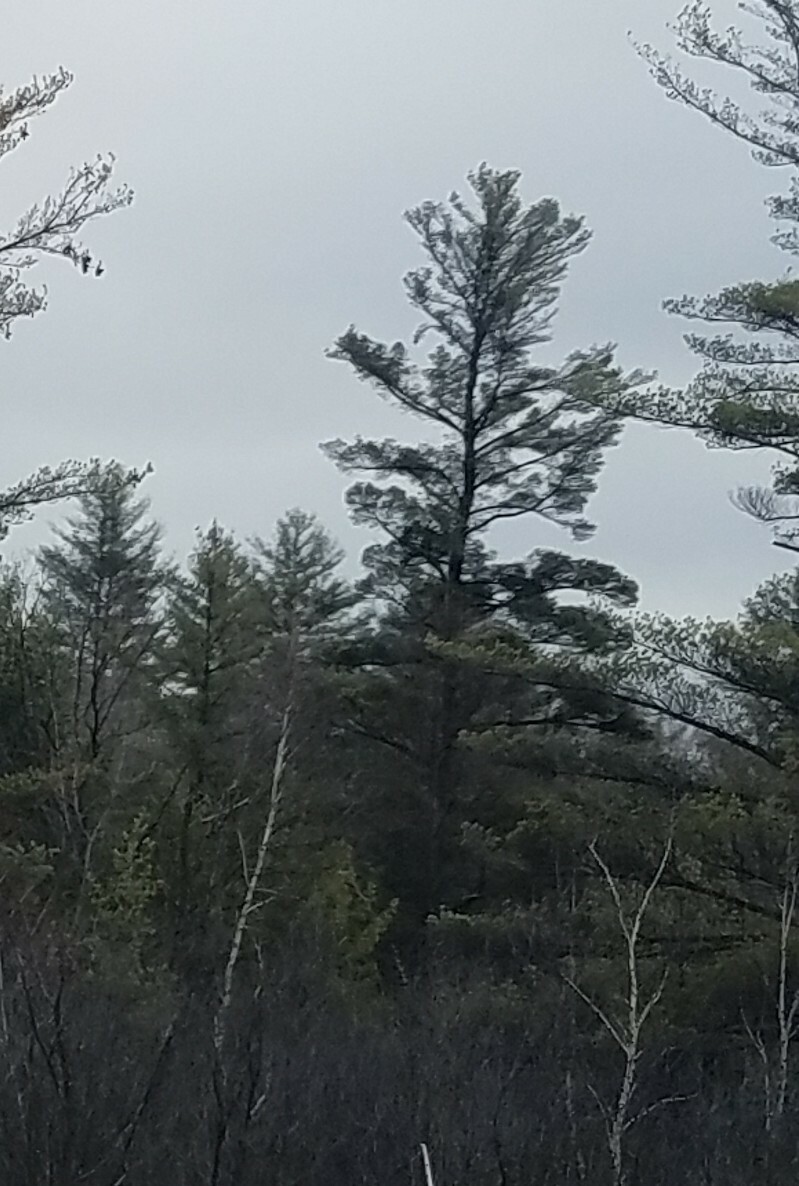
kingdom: Plantae
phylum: Tracheophyta
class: Pinopsida
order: Pinales
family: Pinaceae
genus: Pinus
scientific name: Pinus strobus
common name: Weymouth pine
